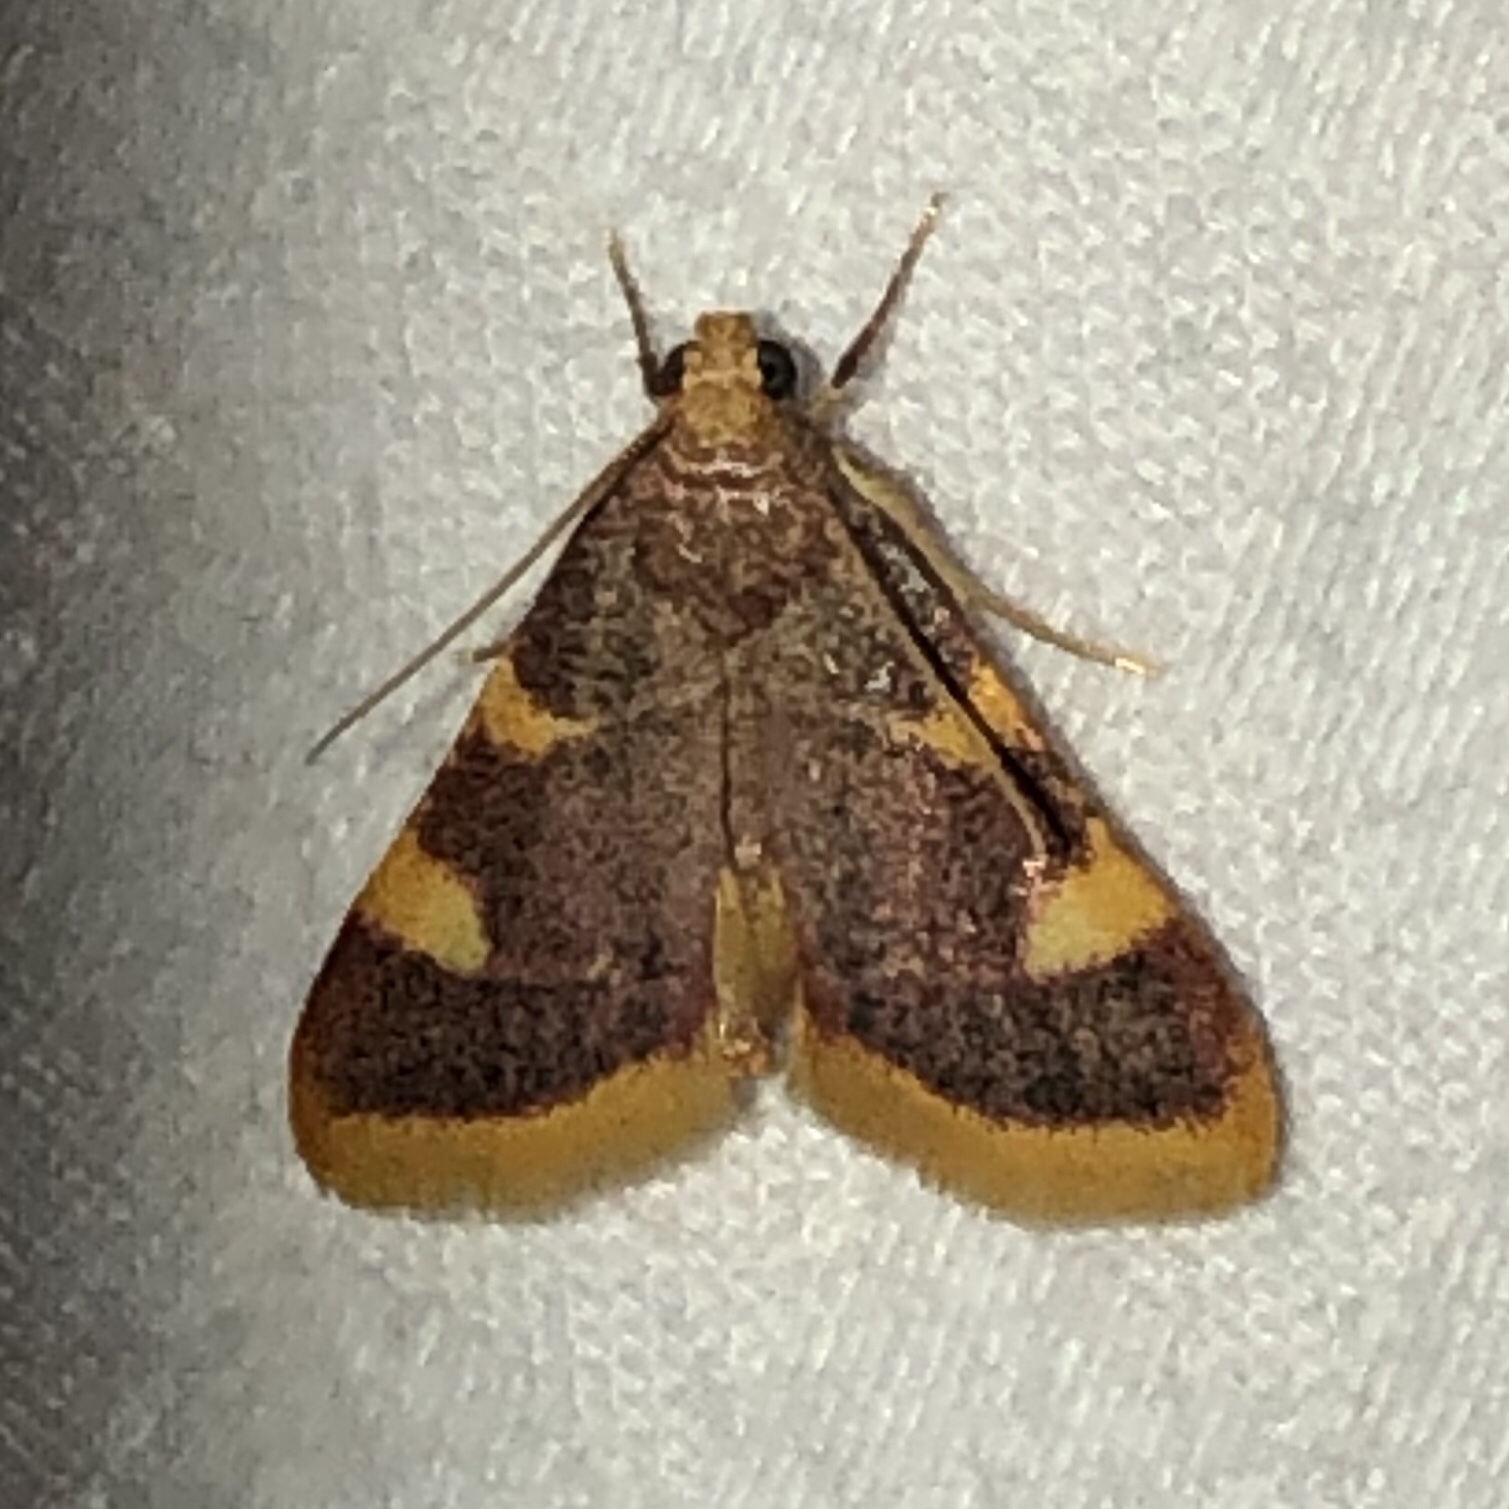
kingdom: Animalia
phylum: Arthropoda
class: Insecta
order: Lepidoptera
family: Pyralidae
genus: Hypsopygia
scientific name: Hypsopygia costalis
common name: Gold triangle
